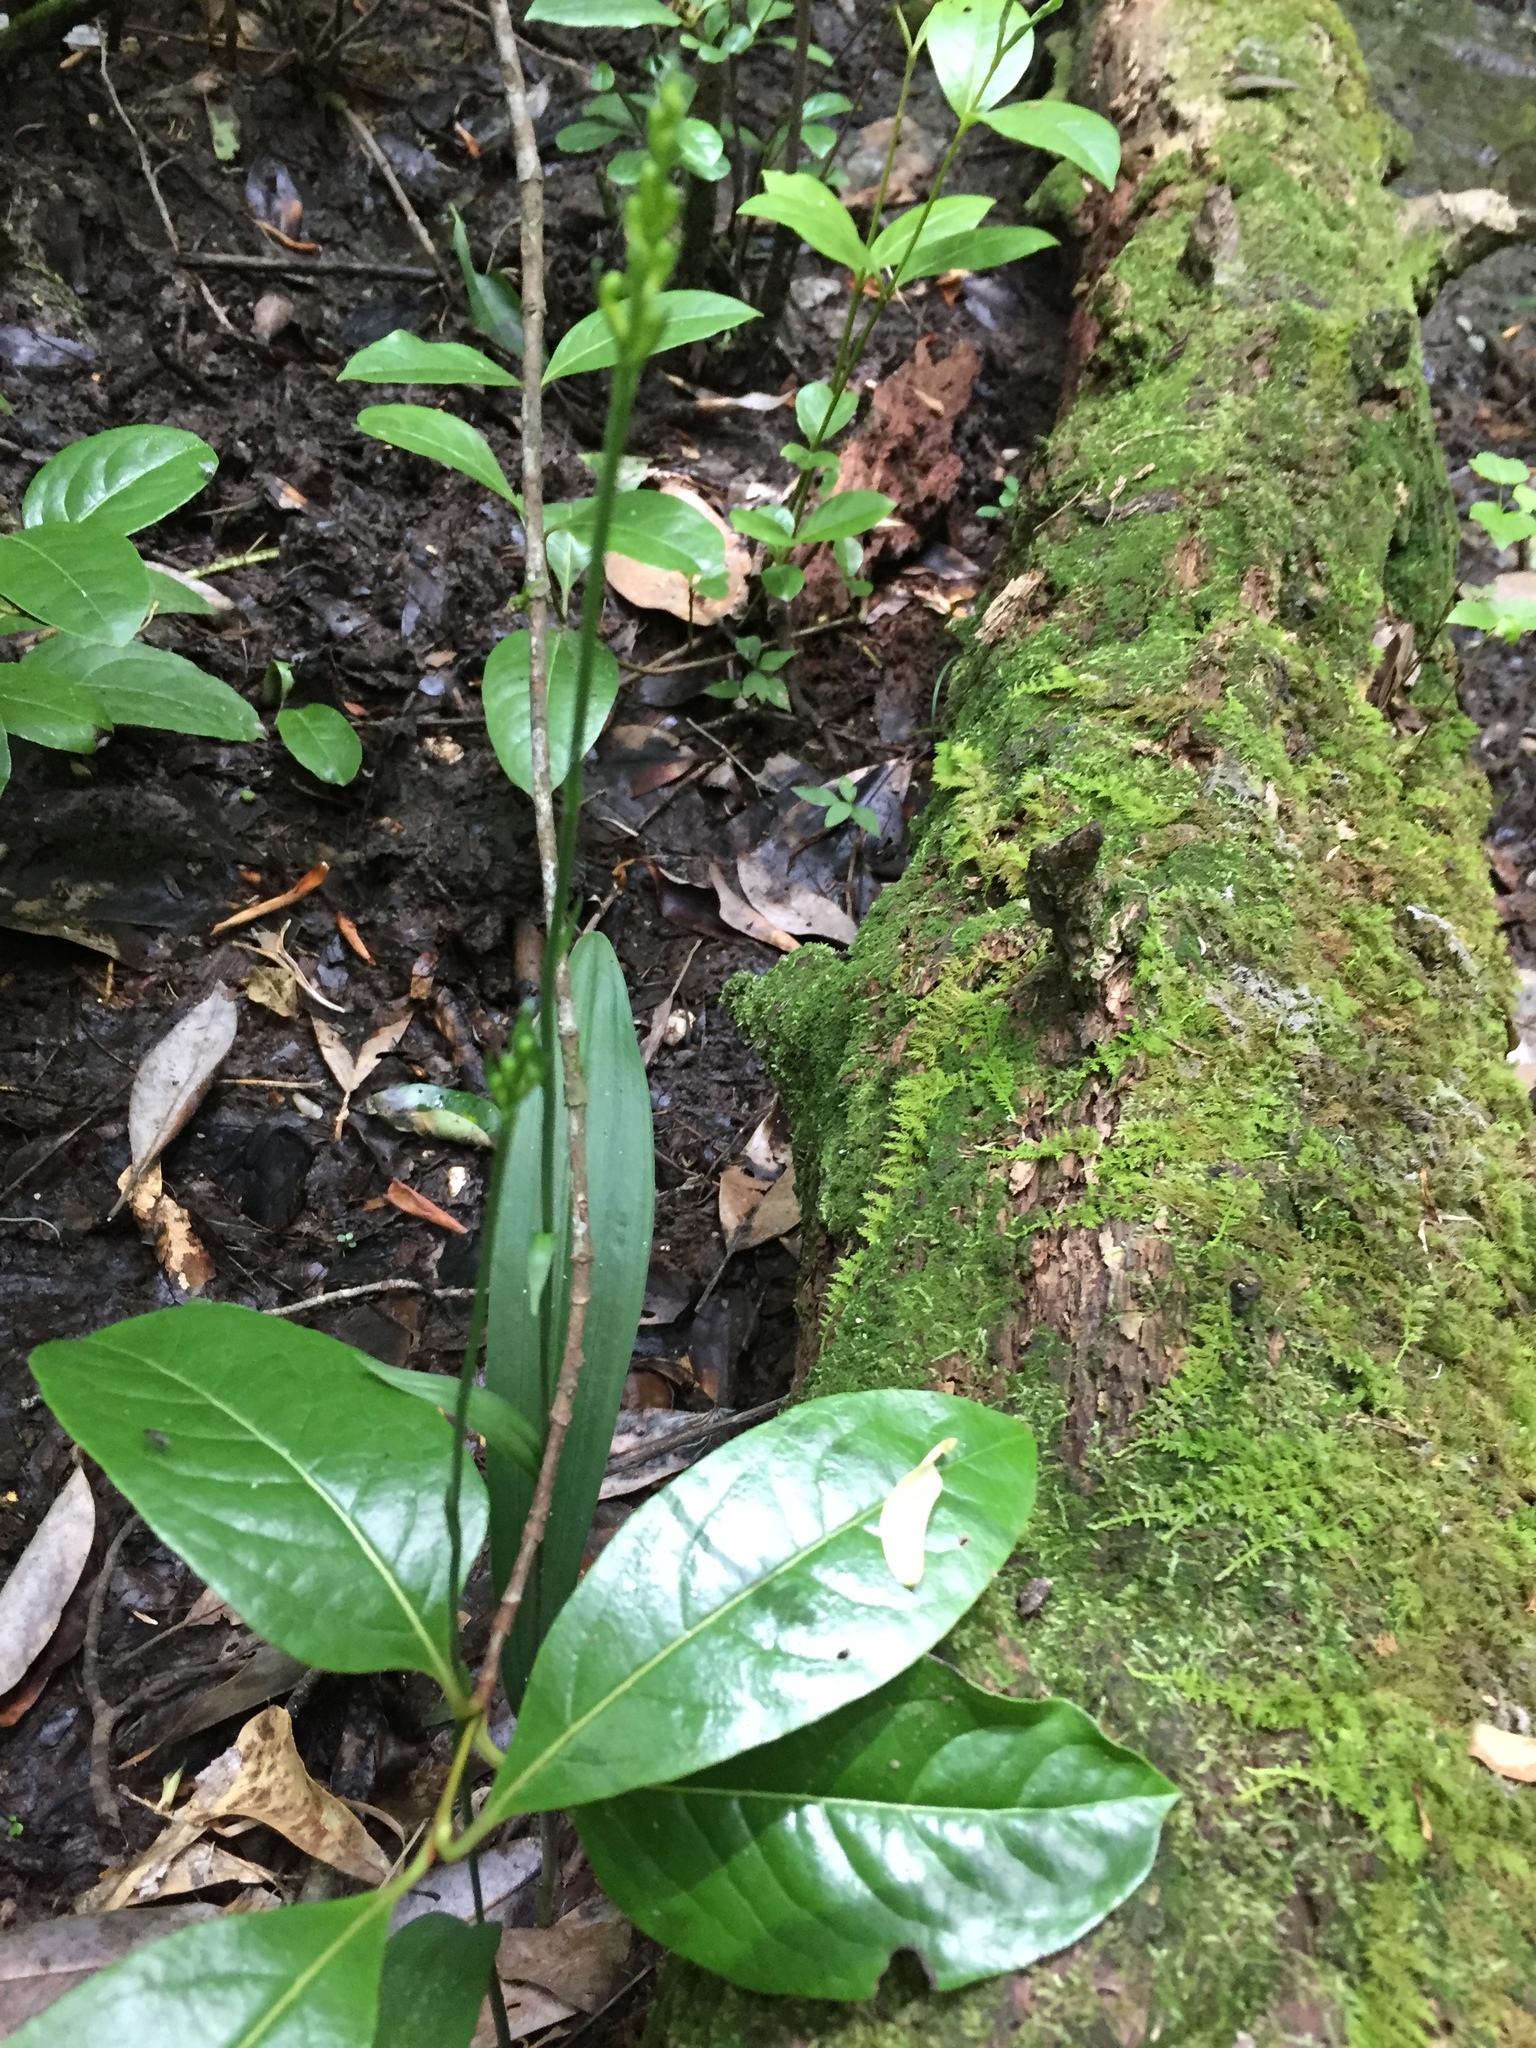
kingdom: Plantae
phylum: Tracheophyta
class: Liliopsida
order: Asparagales
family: Orchidaceae
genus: Platanthera
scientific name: Platanthera clavellata
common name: Club-spur orchid
